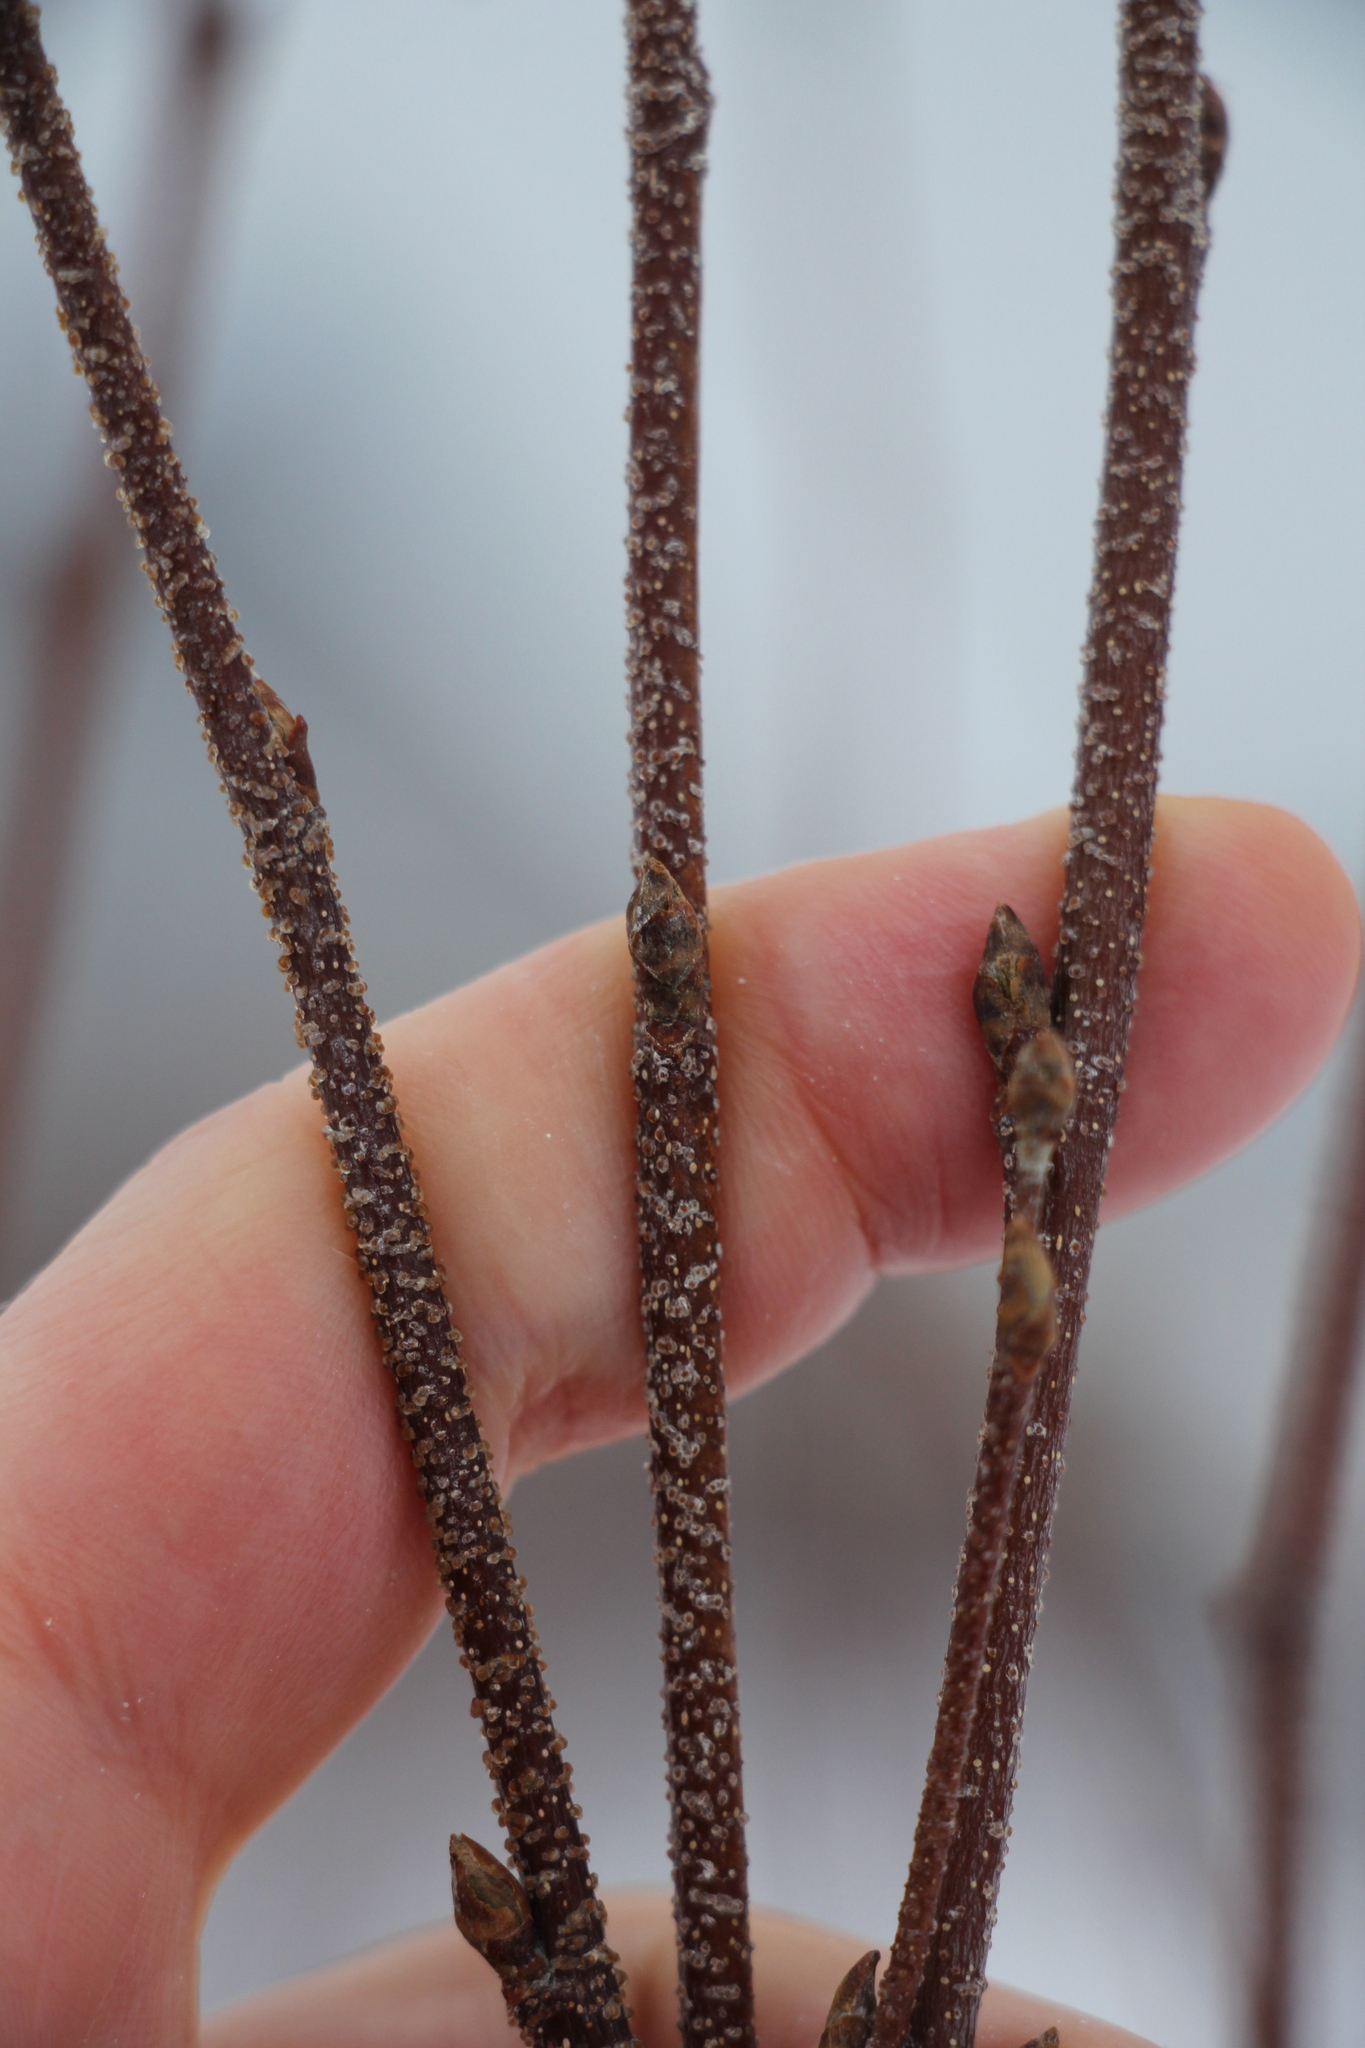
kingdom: Plantae
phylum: Tracheophyta
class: Magnoliopsida
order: Fagales
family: Betulaceae
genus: Betula
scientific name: Betula pendula
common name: Silver birch
